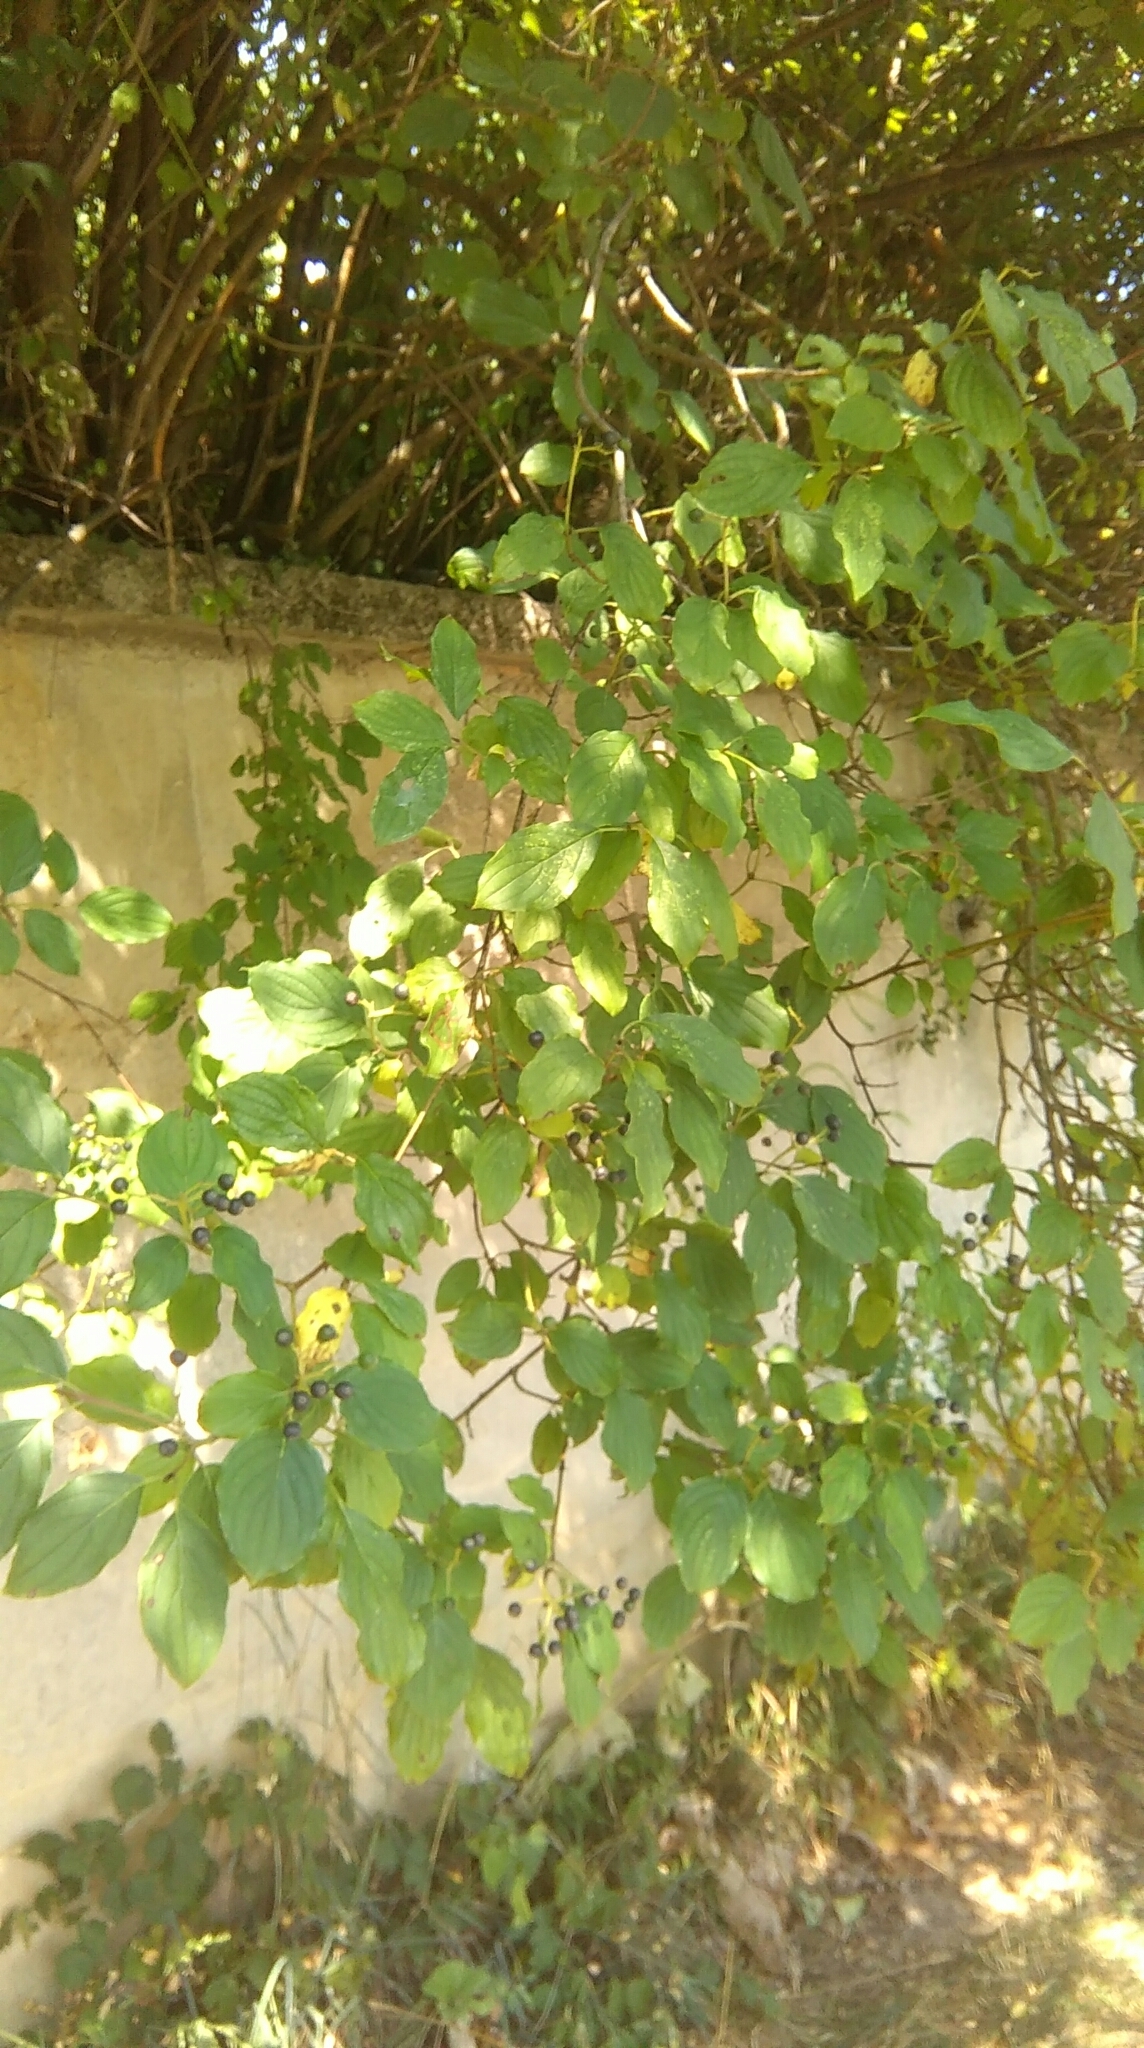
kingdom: Plantae
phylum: Tracheophyta
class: Magnoliopsida
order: Cornales
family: Cornaceae
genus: Cornus
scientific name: Cornus sanguinea
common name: Dogwood
